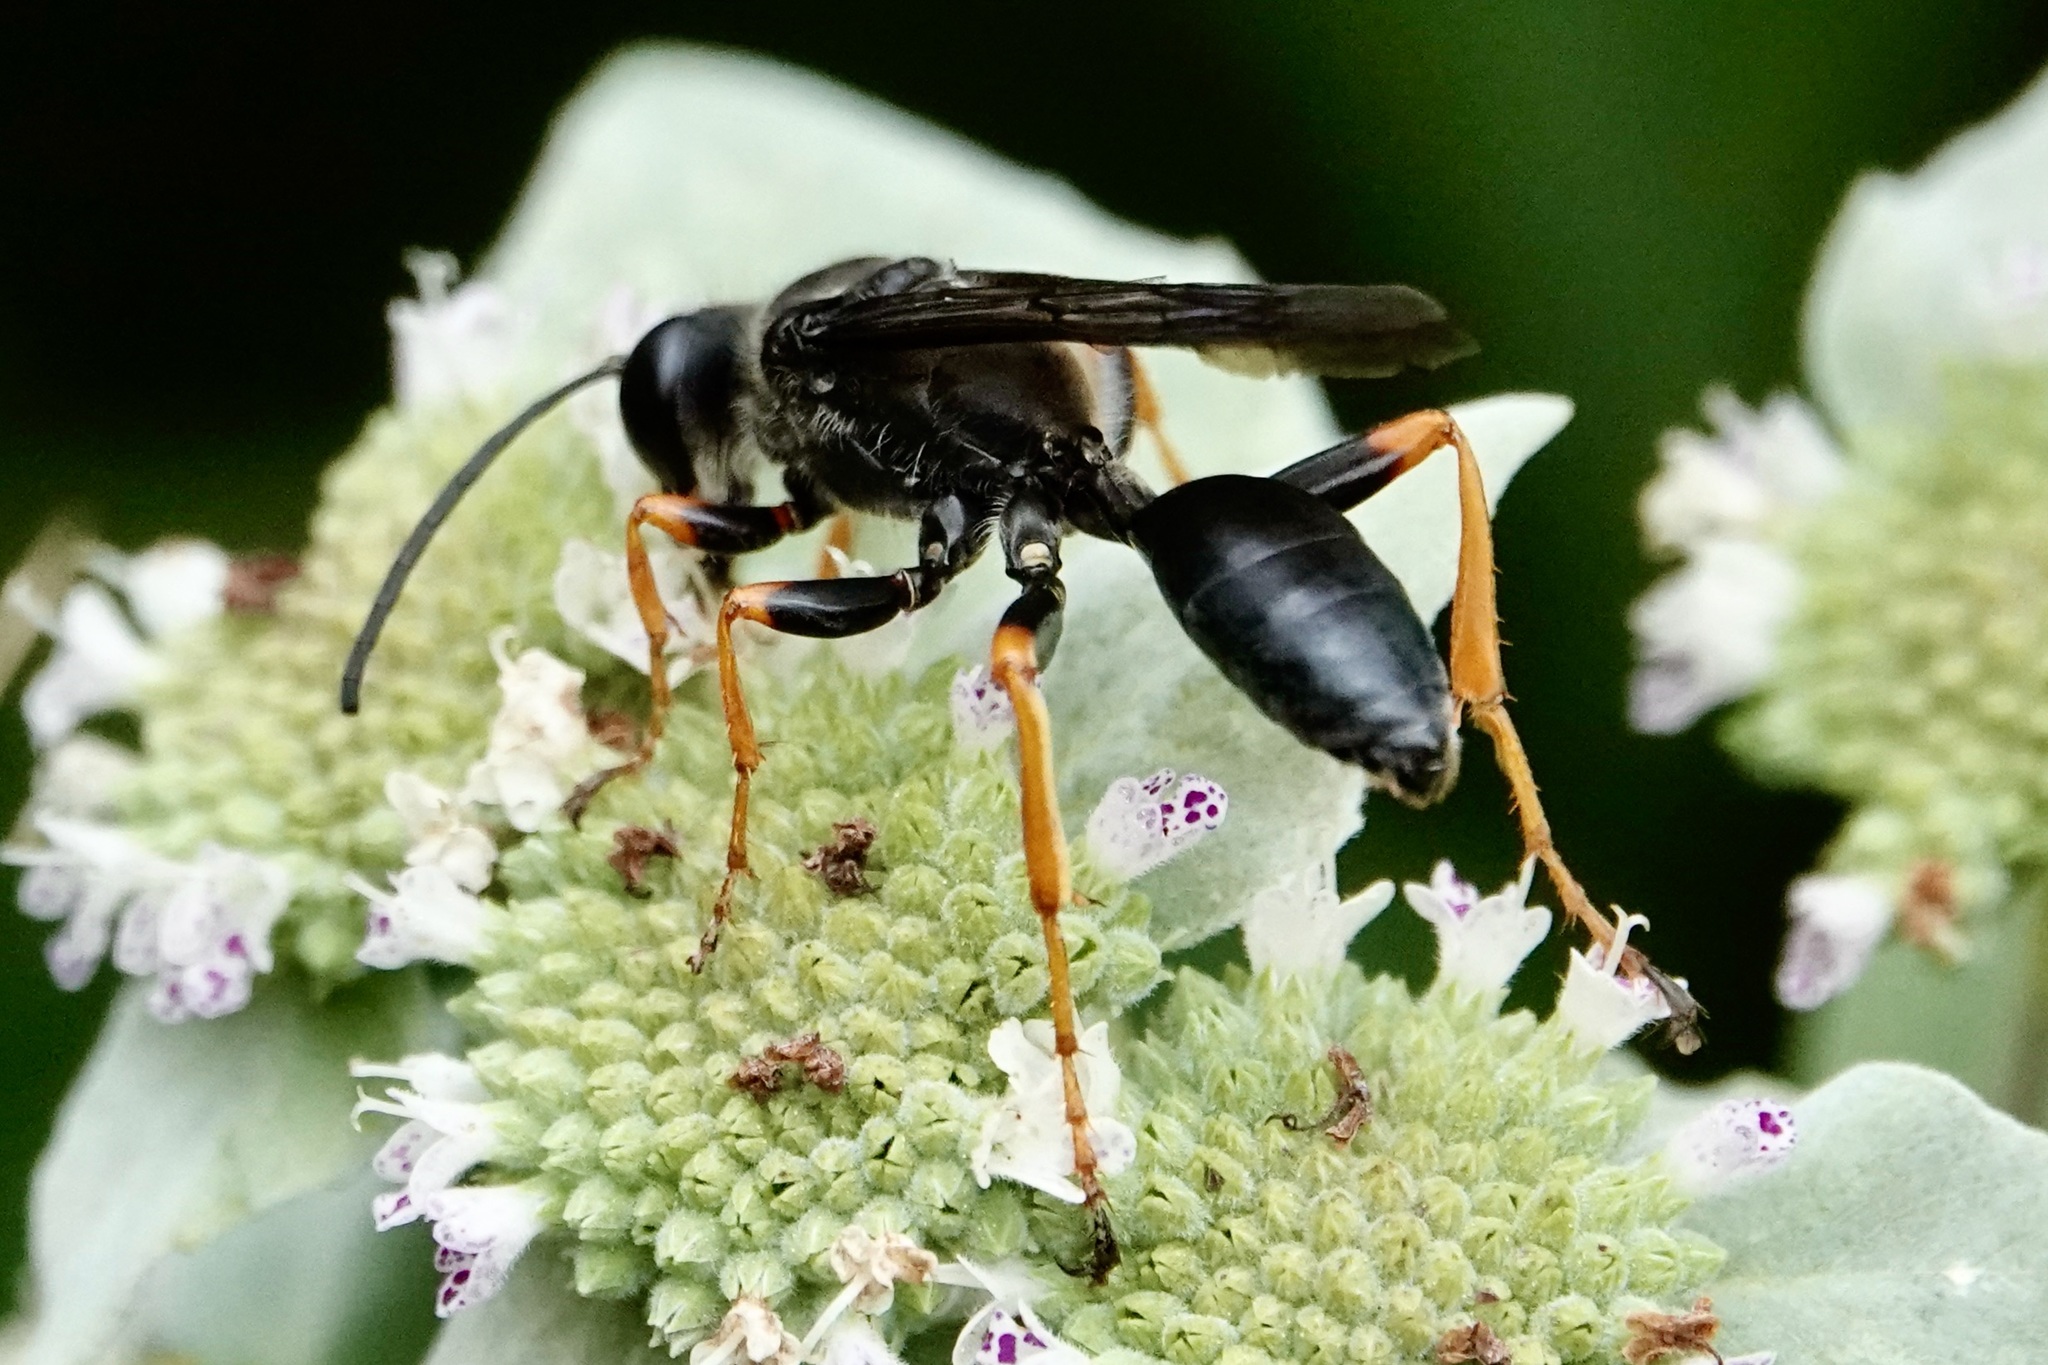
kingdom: Animalia
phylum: Arthropoda
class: Insecta
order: Hymenoptera
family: Sphecidae
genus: Sphex
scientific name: Sphex nudus
